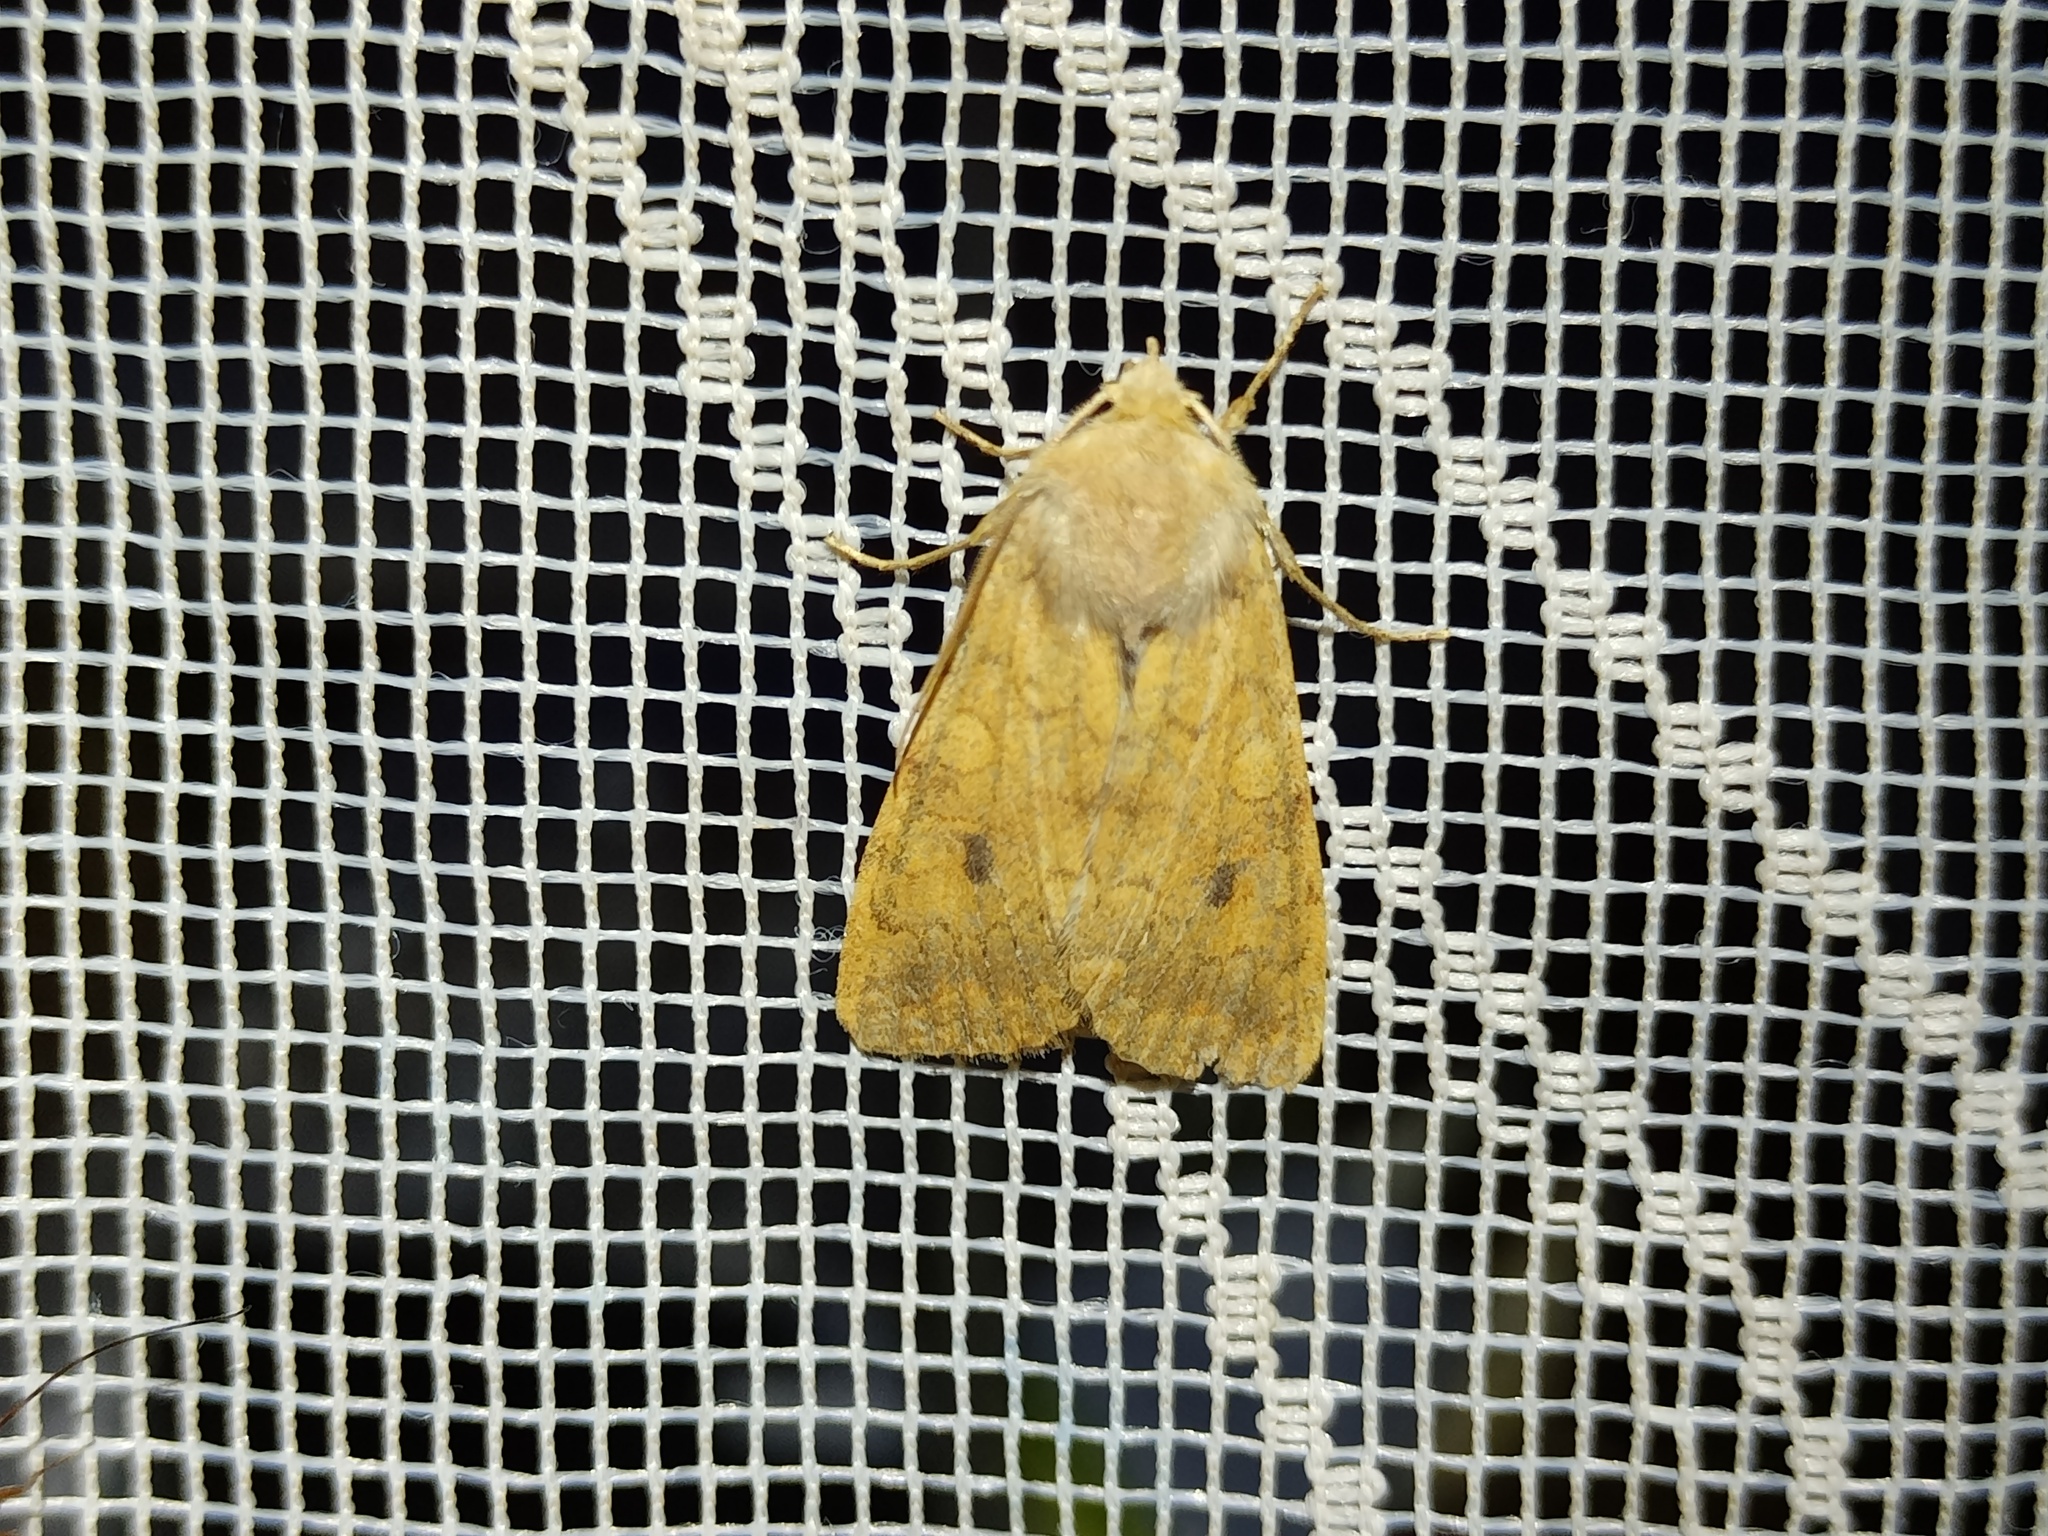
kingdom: Animalia
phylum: Arthropoda
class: Insecta
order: Lepidoptera
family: Noctuidae
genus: Sunira
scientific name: Sunira circellaris
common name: Brick
